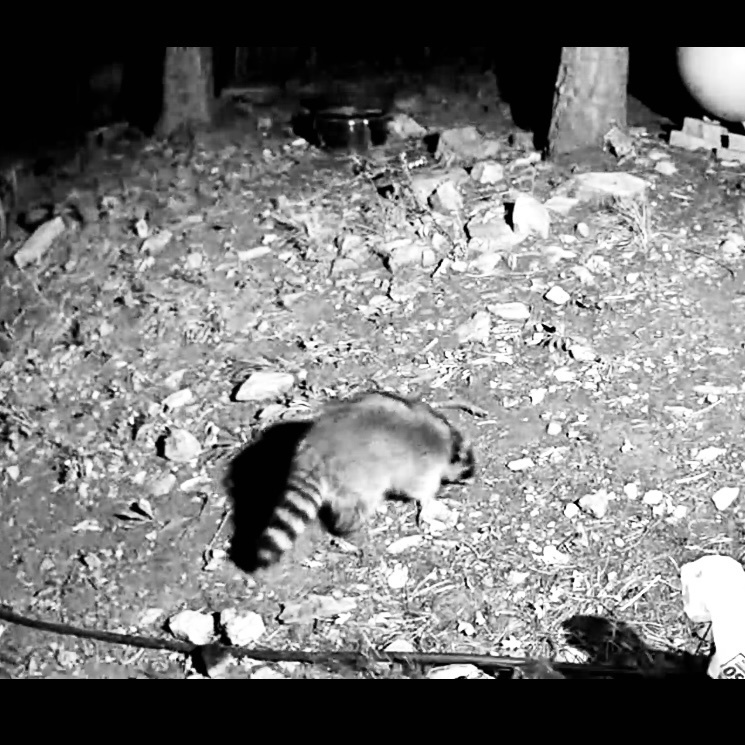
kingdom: Animalia
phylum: Chordata
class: Mammalia
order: Carnivora
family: Procyonidae
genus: Procyon
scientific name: Procyon lotor
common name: Raccoon
